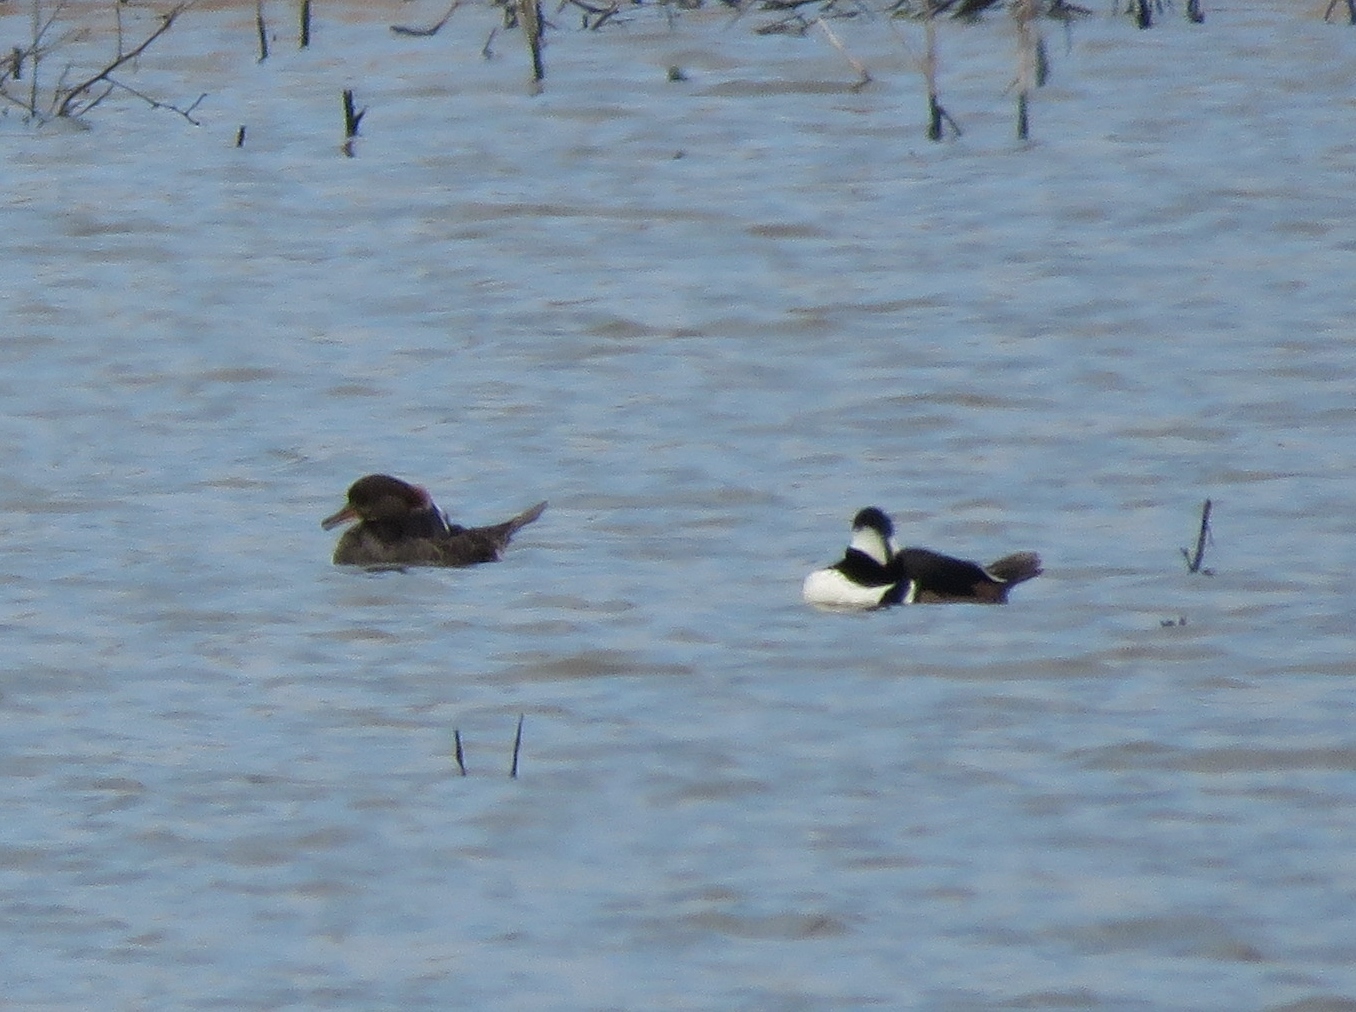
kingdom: Animalia
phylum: Chordata
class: Aves
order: Anseriformes
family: Anatidae
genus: Lophodytes
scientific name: Lophodytes cucullatus
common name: Hooded merganser
